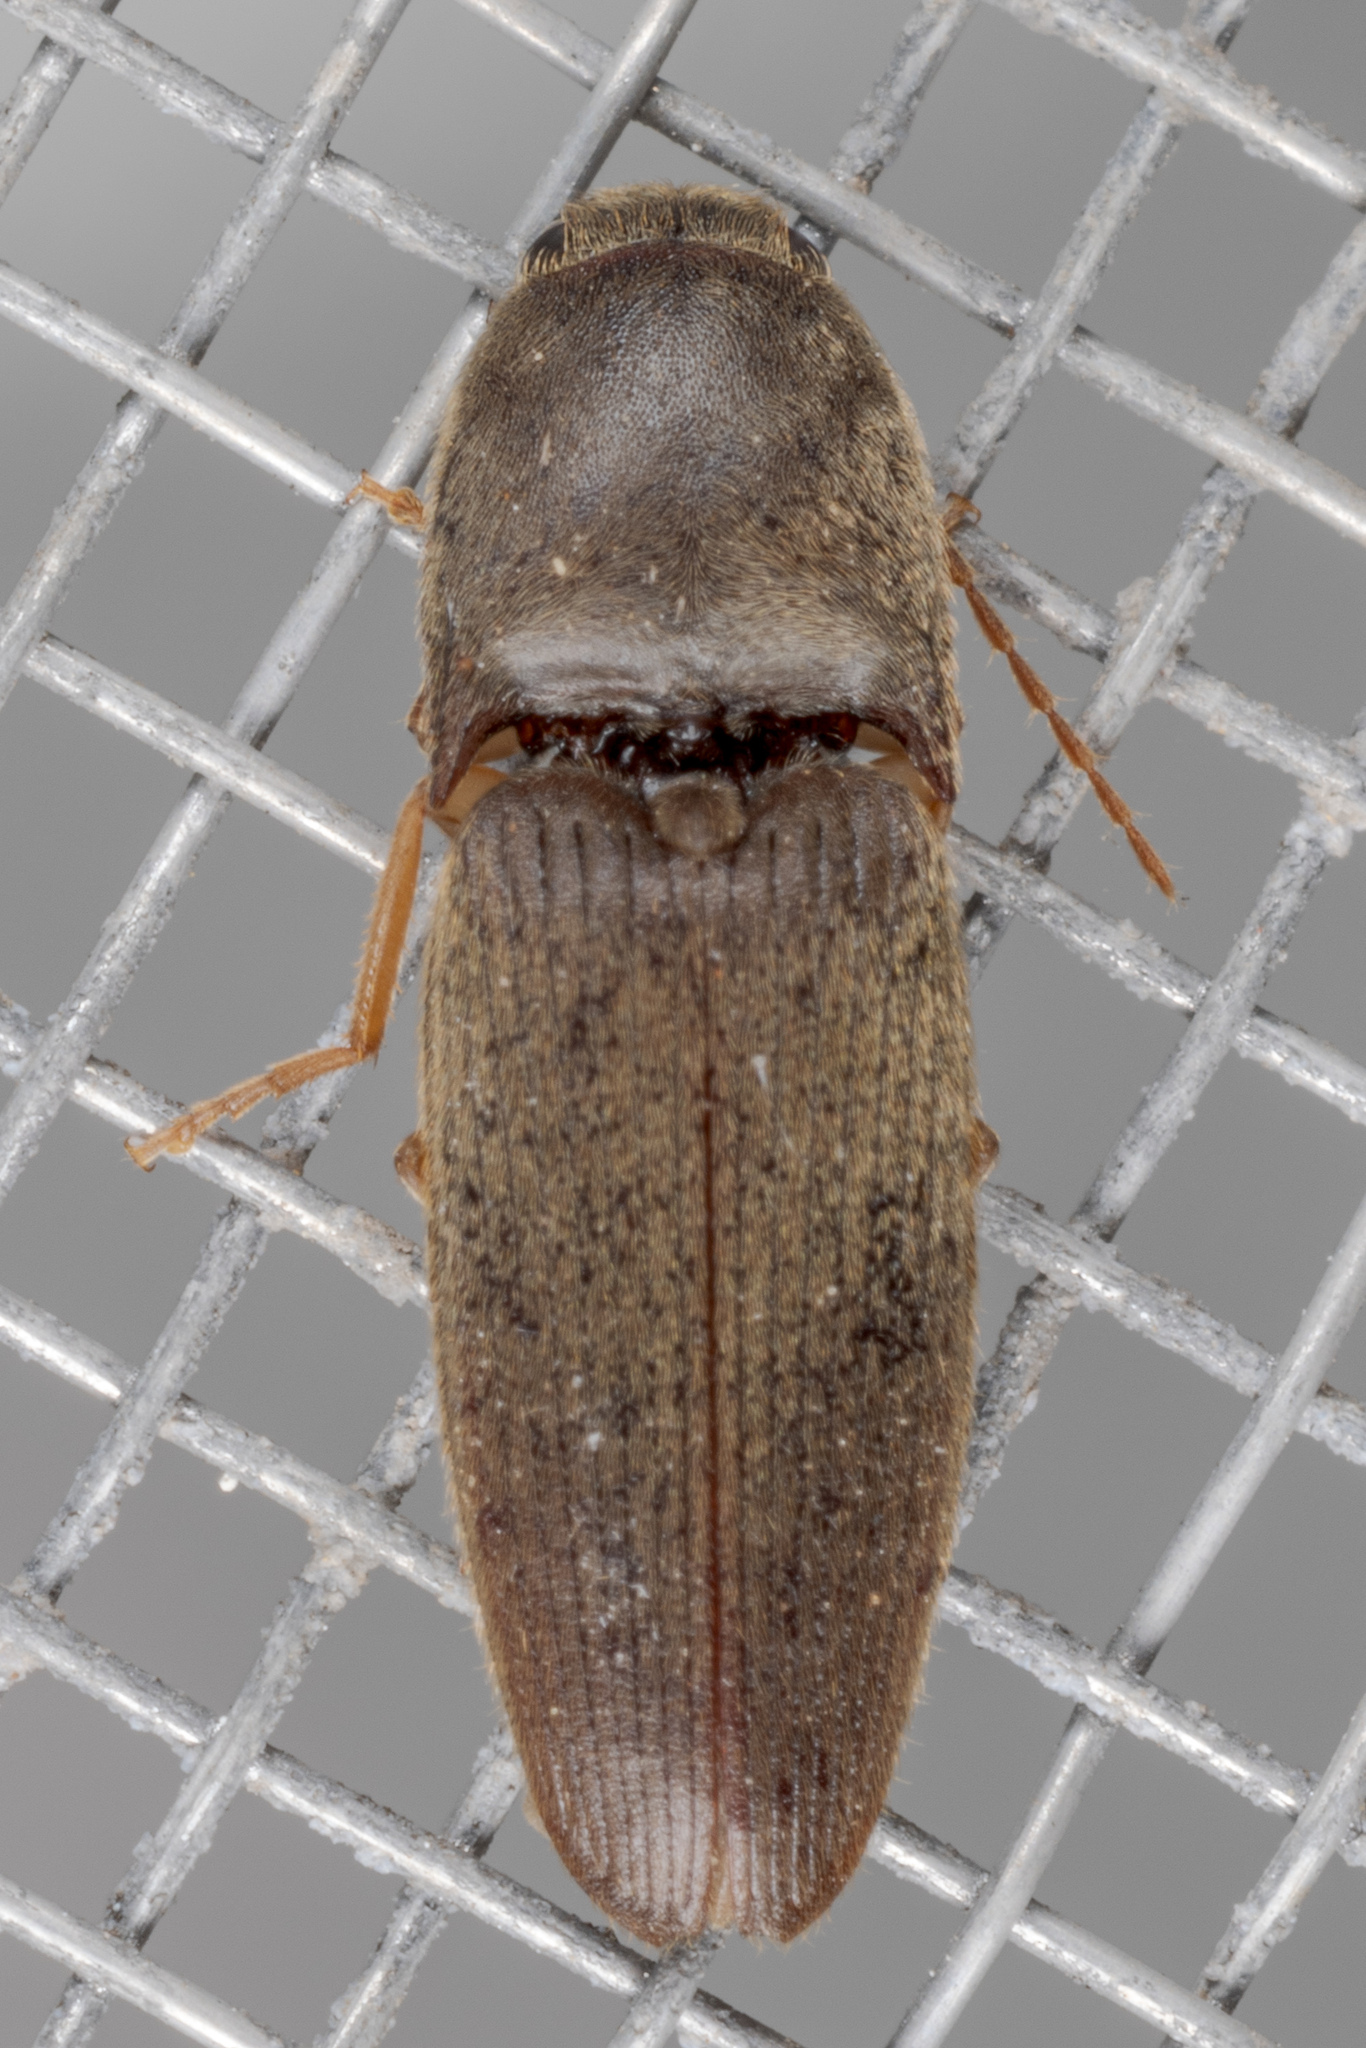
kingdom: Animalia
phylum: Arthropoda
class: Insecta
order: Coleoptera
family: Elateridae
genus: Conoderus
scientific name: Conoderus exsul
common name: Click beetle
